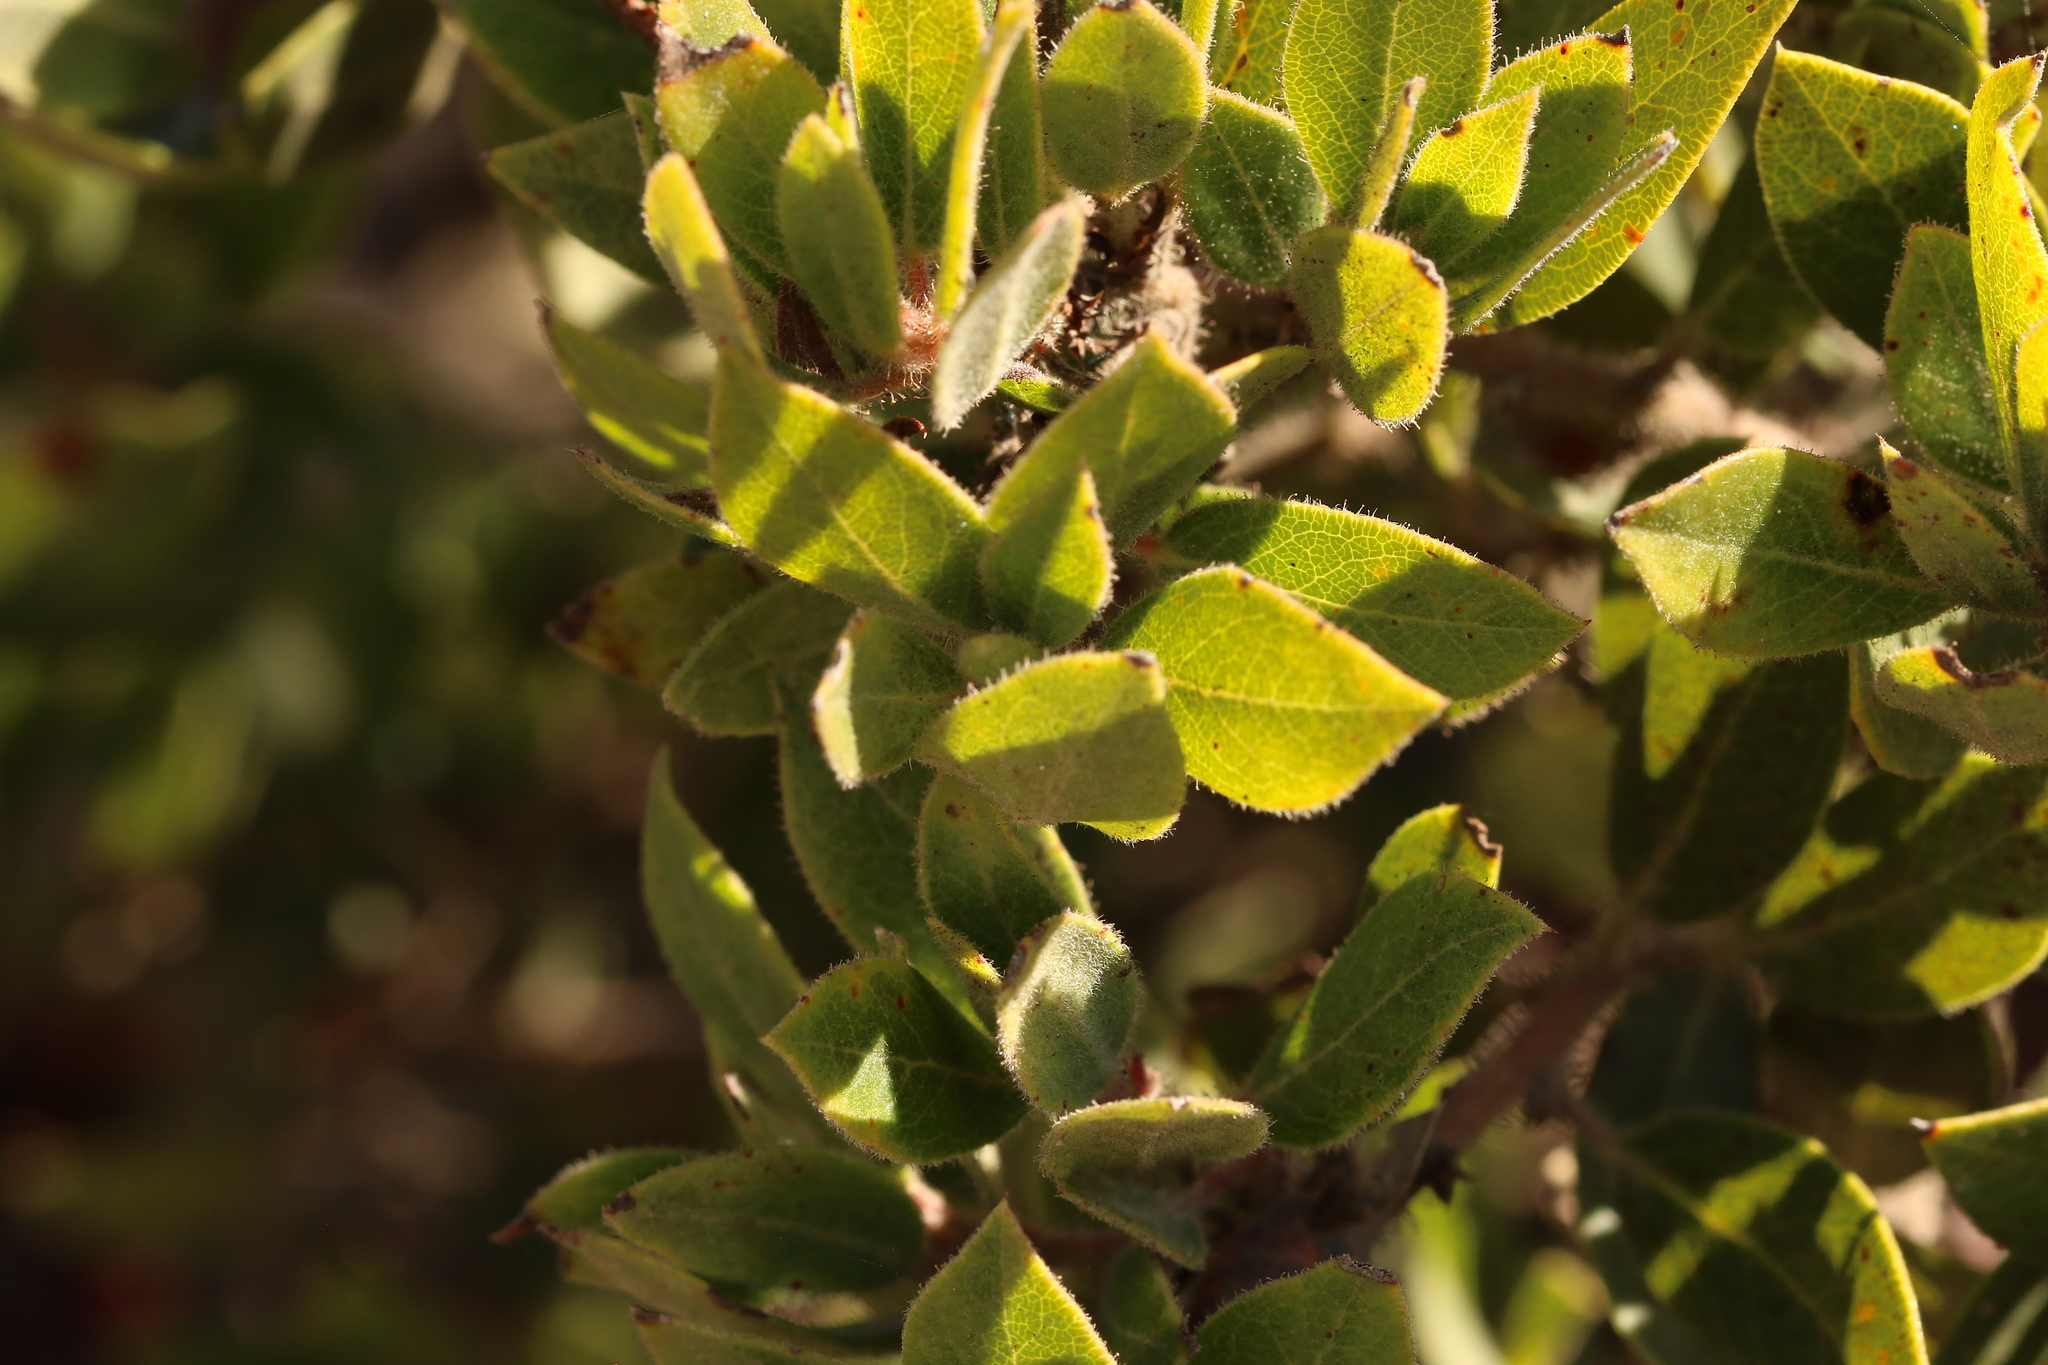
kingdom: Plantae
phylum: Tracheophyta
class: Magnoliopsida
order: Ericales
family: Ericaceae
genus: Arctostaphylos
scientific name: Arctostaphylos tomentosa
